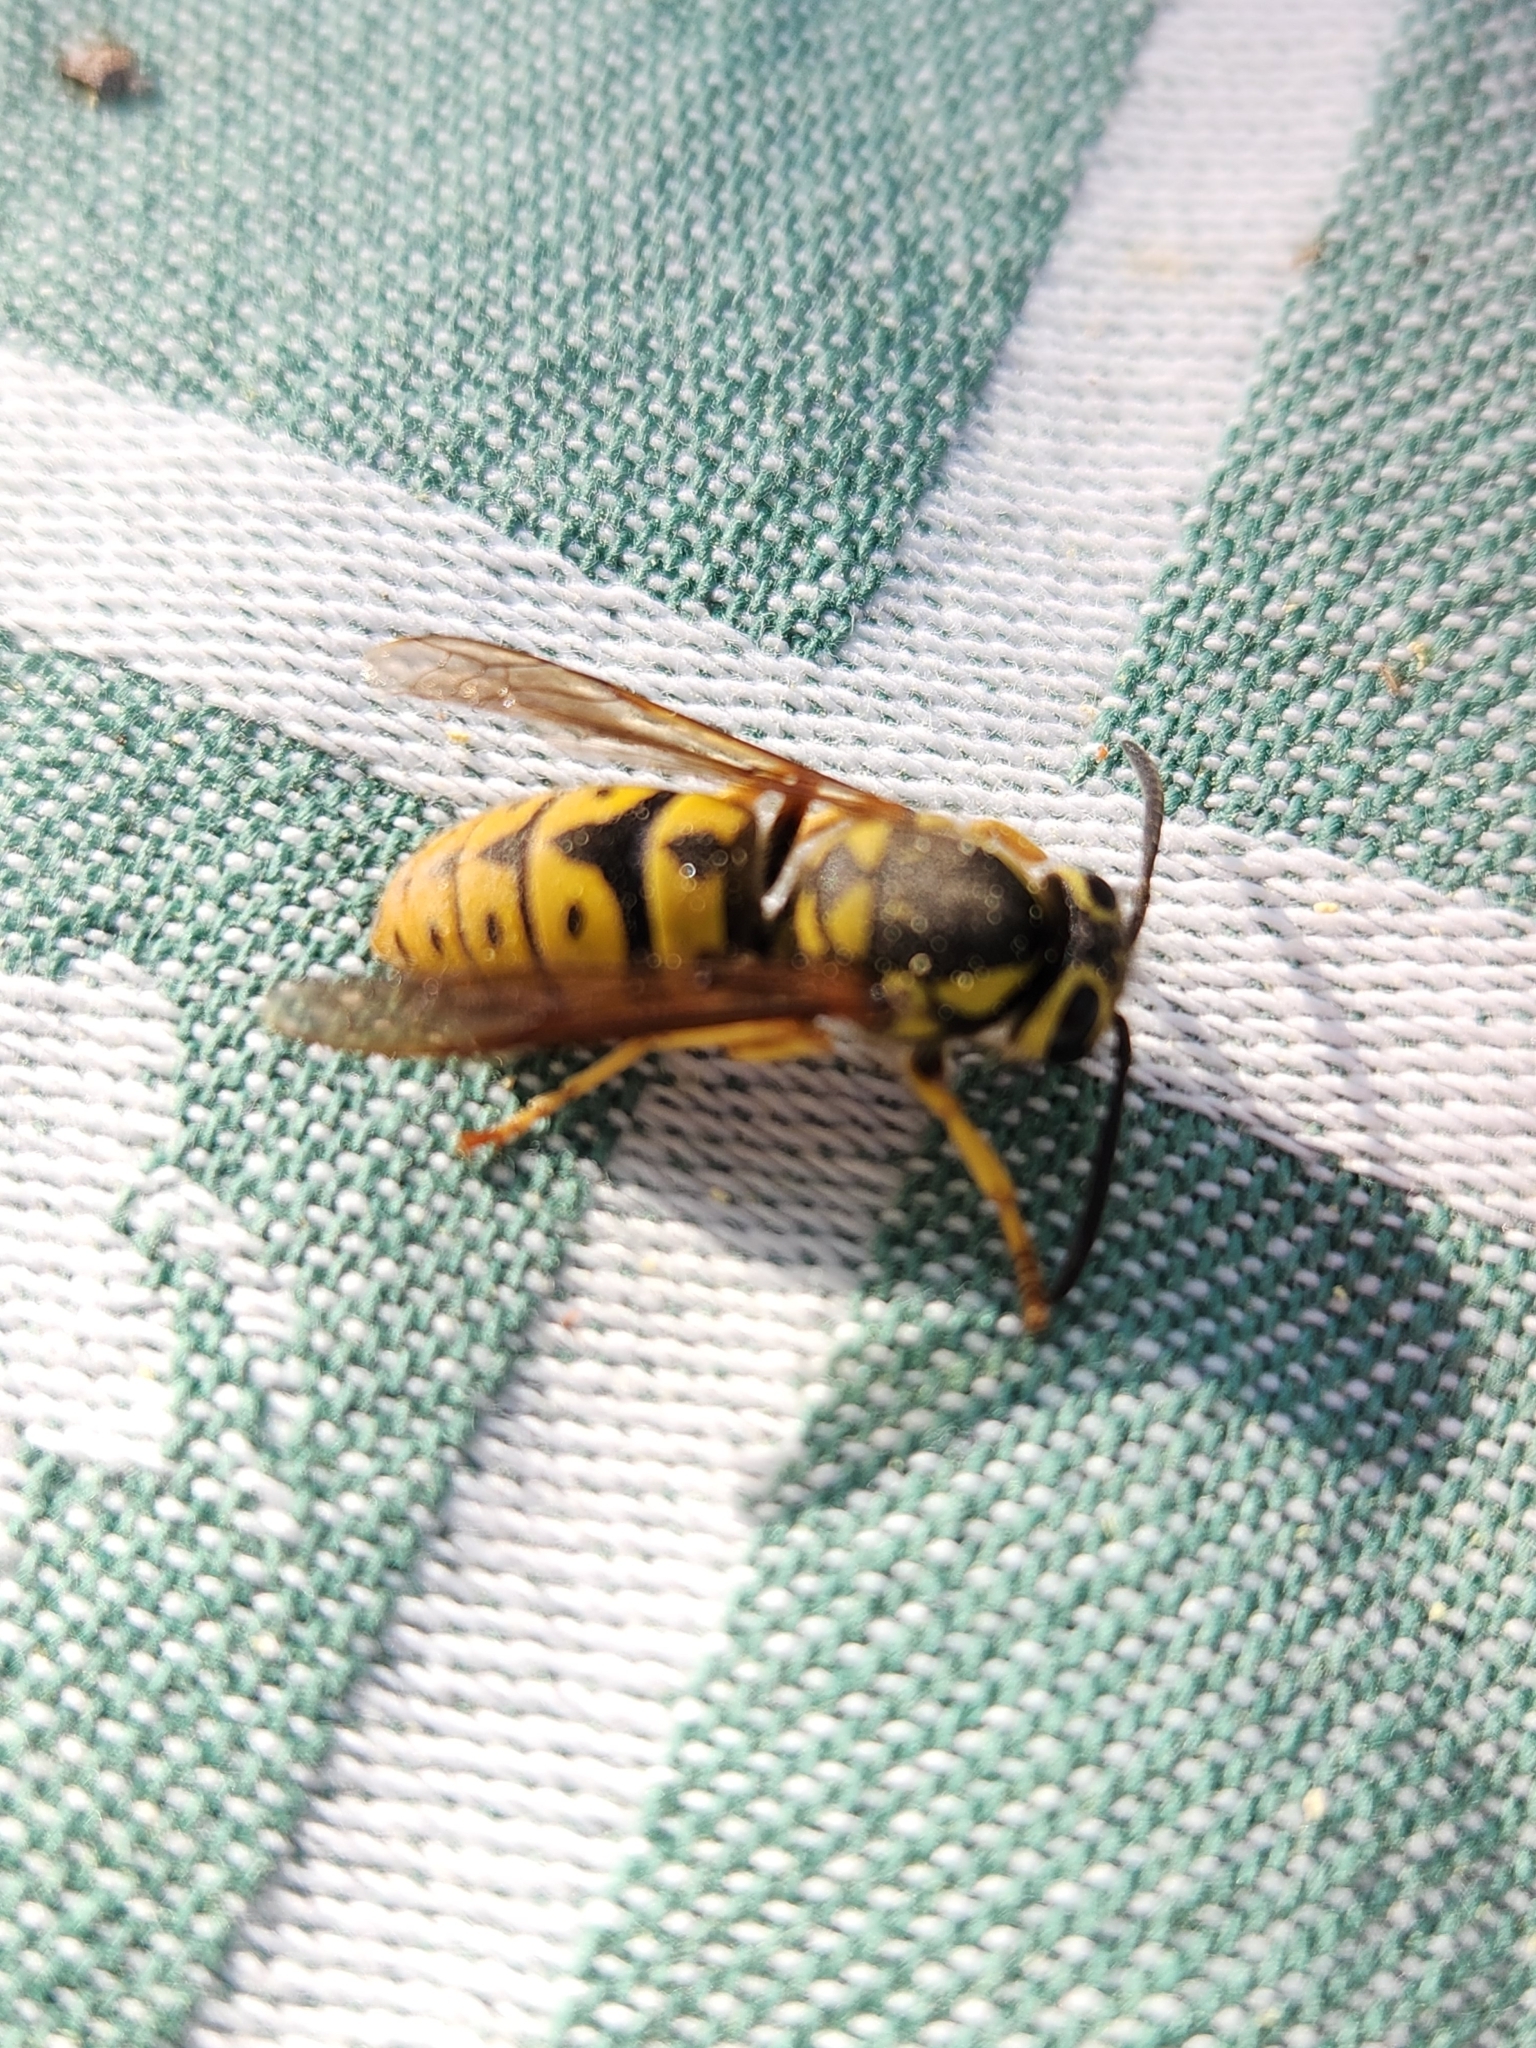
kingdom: Animalia
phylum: Arthropoda
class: Insecta
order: Hymenoptera
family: Vespidae
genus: Vespula
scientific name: Vespula pensylvanica
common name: Western yellowjacket
